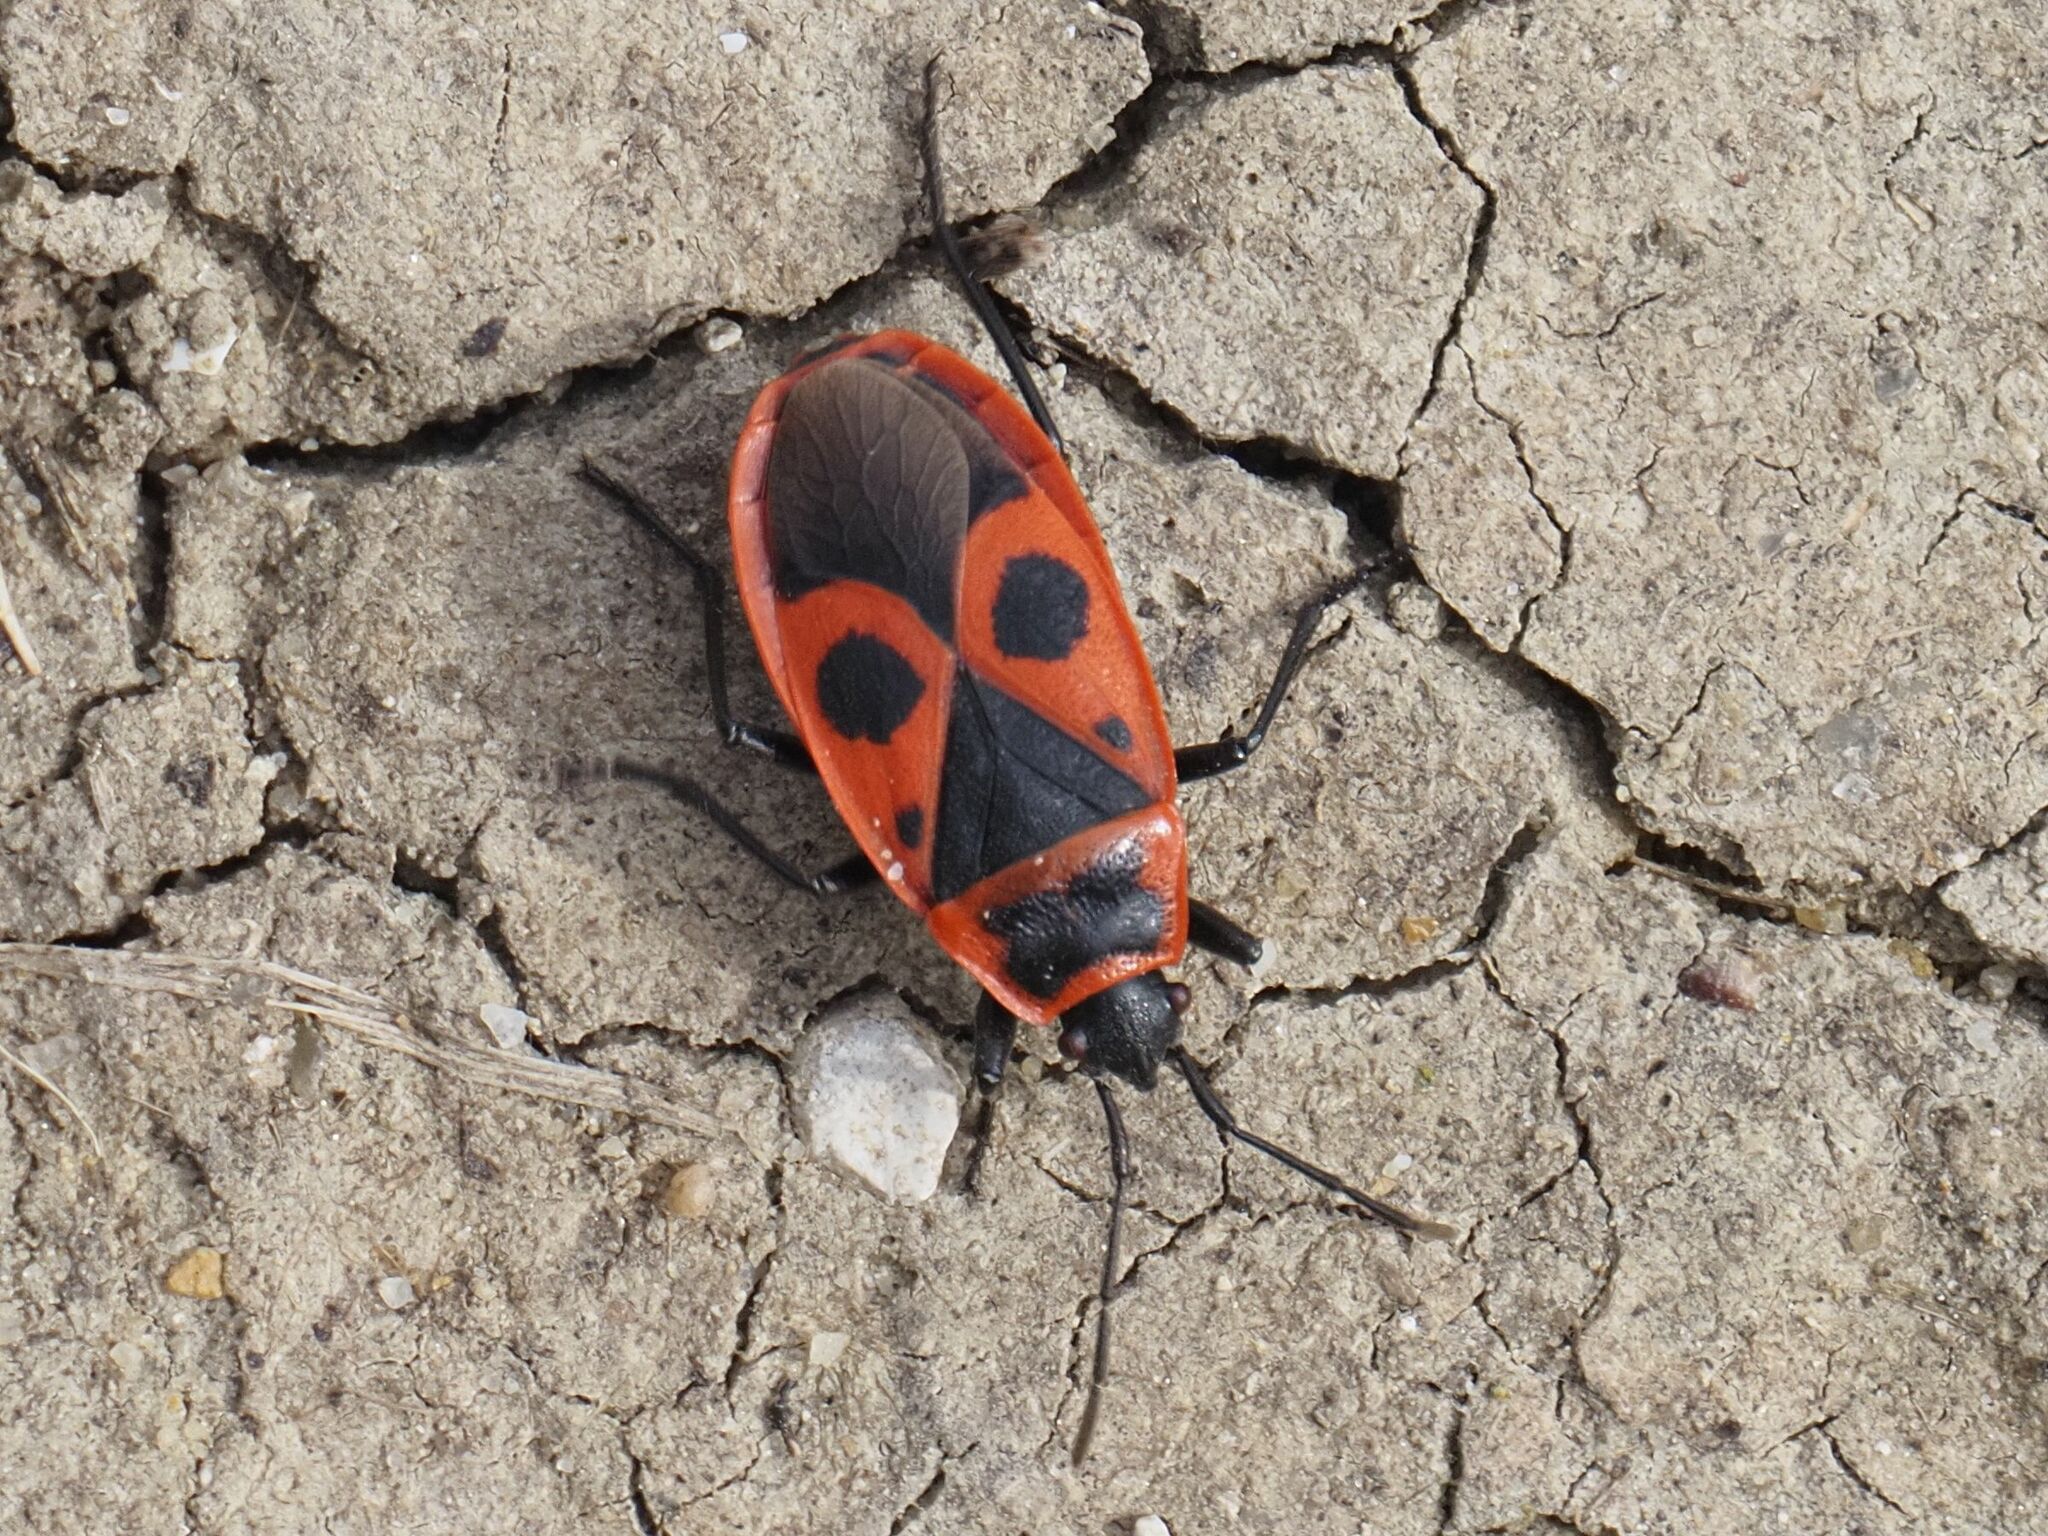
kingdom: Animalia
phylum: Arthropoda
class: Insecta
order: Hemiptera
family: Pyrrhocoridae
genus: Pyrrhocoris
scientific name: Pyrrhocoris apterus
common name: Firebug
